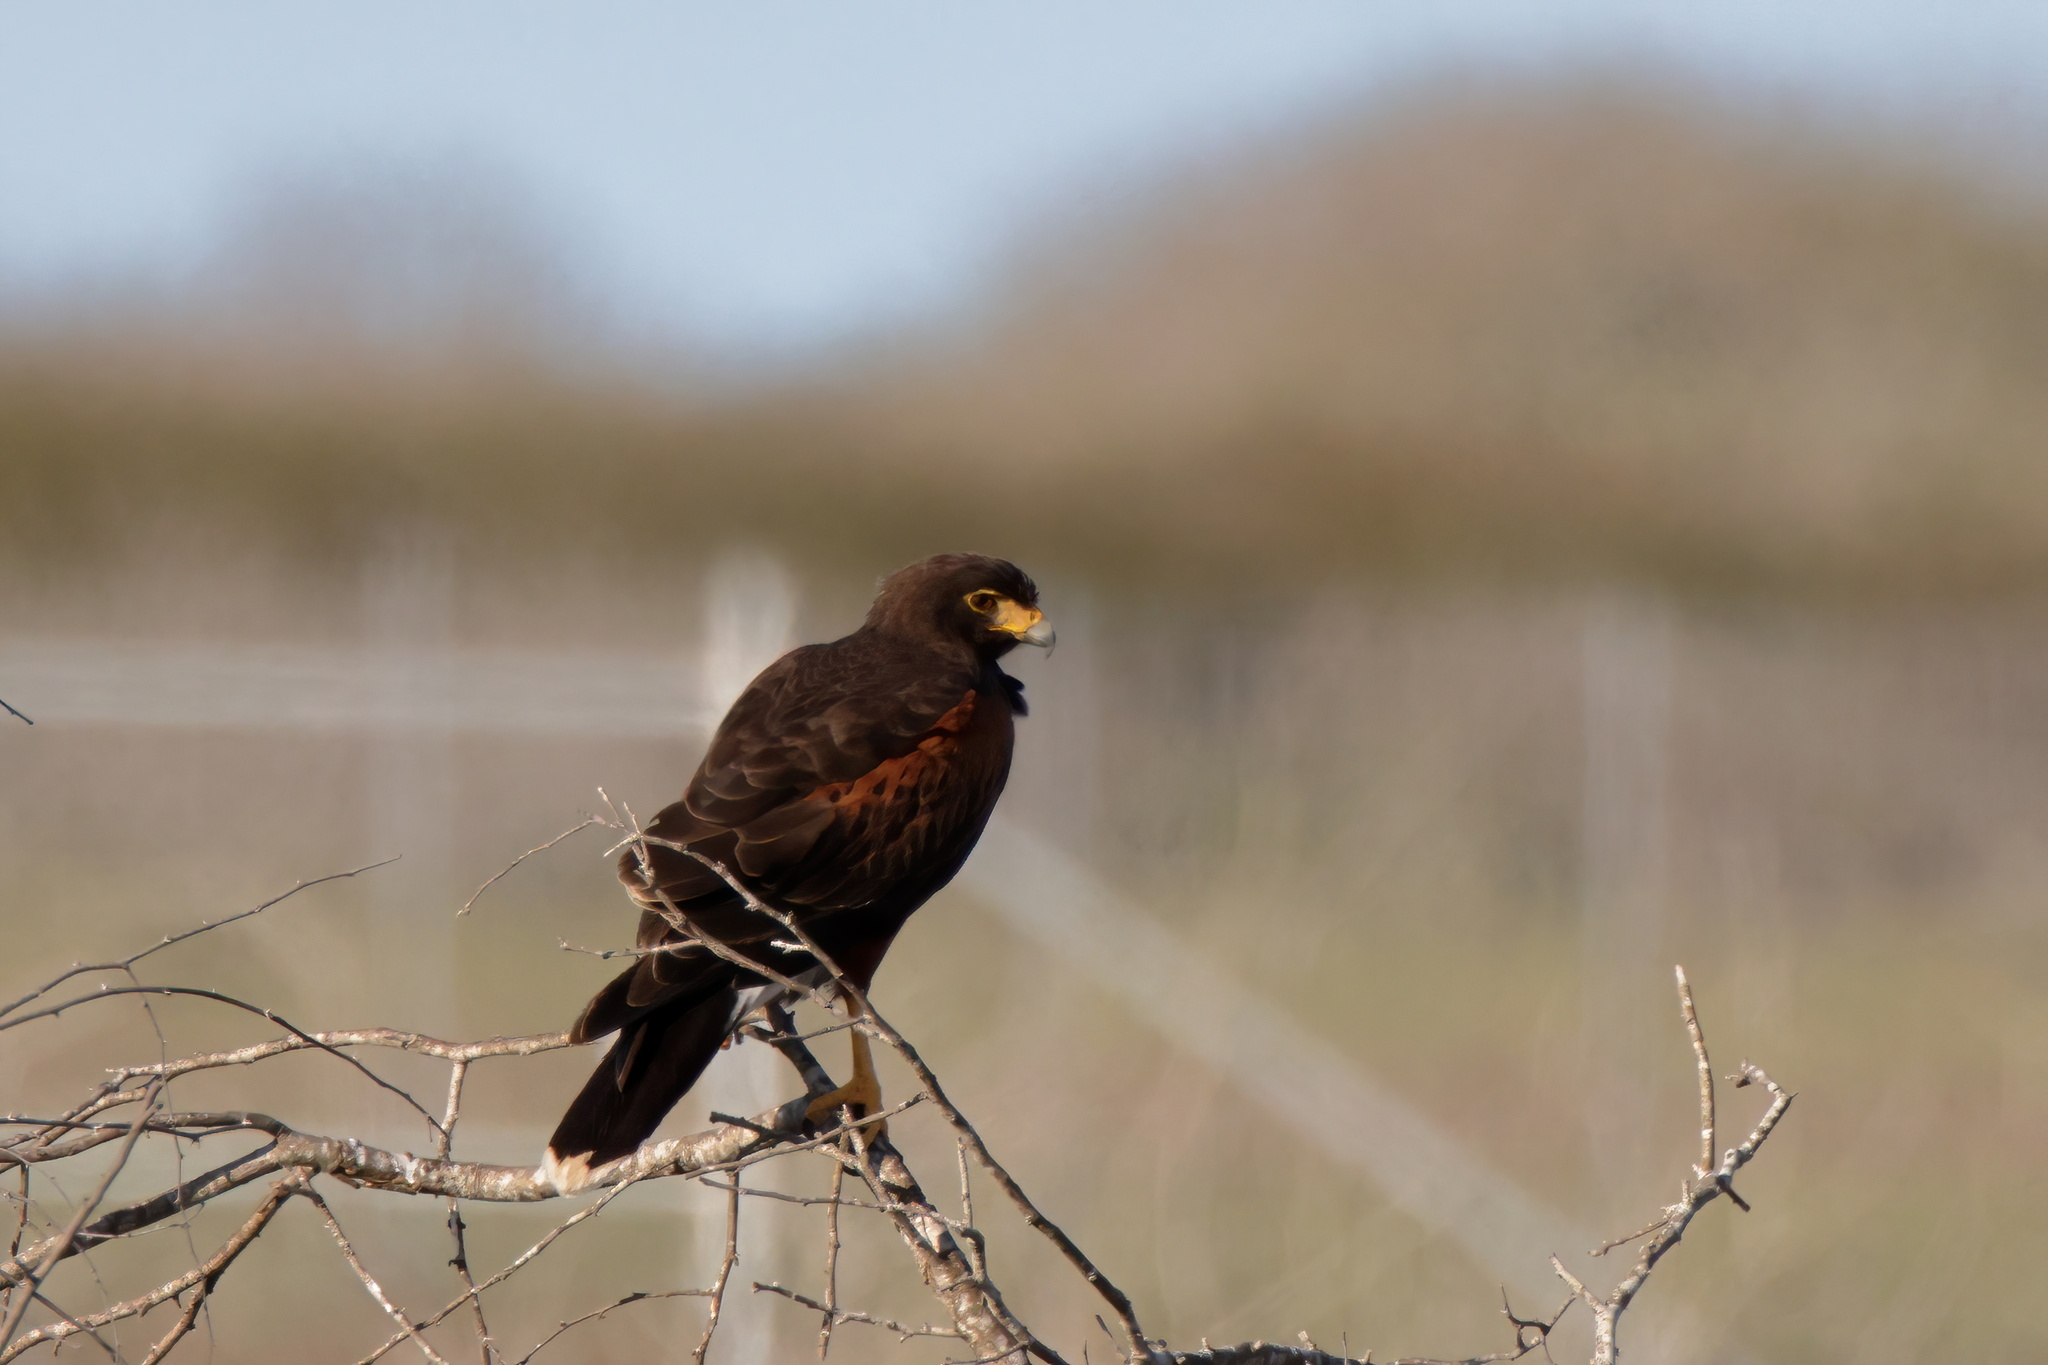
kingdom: Animalia
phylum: Chordata
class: Aves
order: Accipitriformes
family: Accipitridae
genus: Parabuteo
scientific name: Parabuteo unicinctus
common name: Harris's hawk
